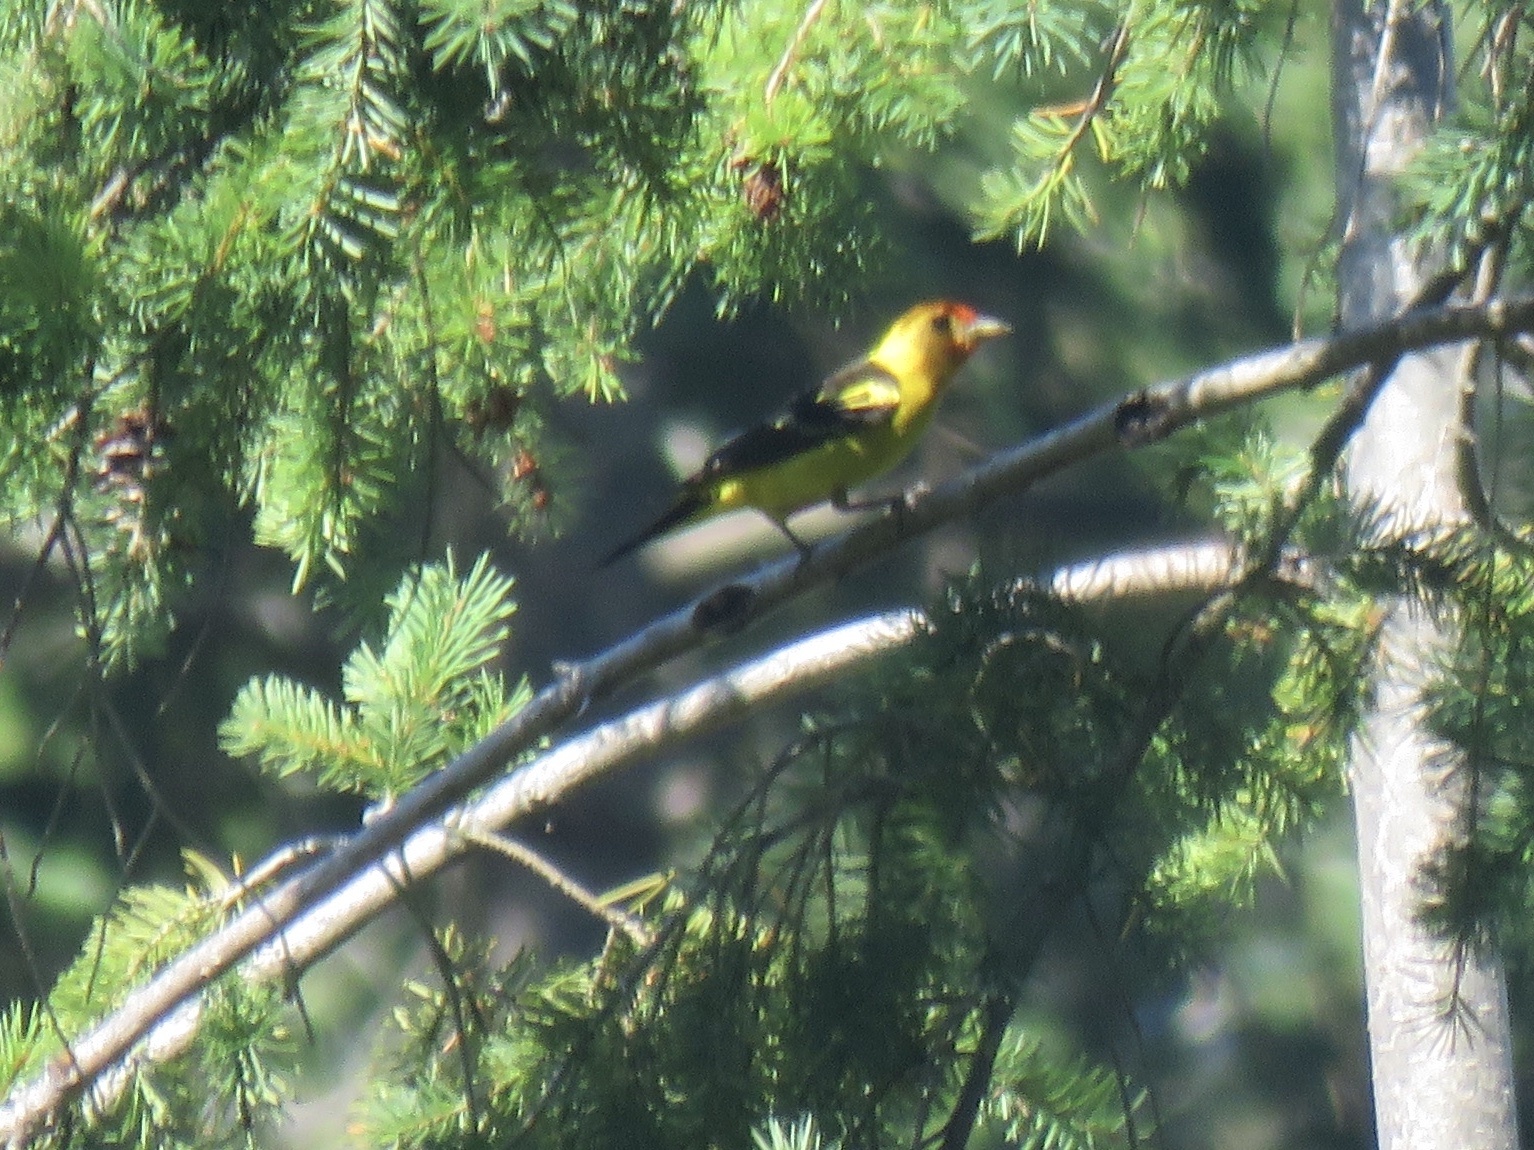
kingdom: Animalia
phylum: Chordata
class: Aves
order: Passeriformes
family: Cardinalidae
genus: Piranga
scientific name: Piranga ludoviciana
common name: Western tanager
